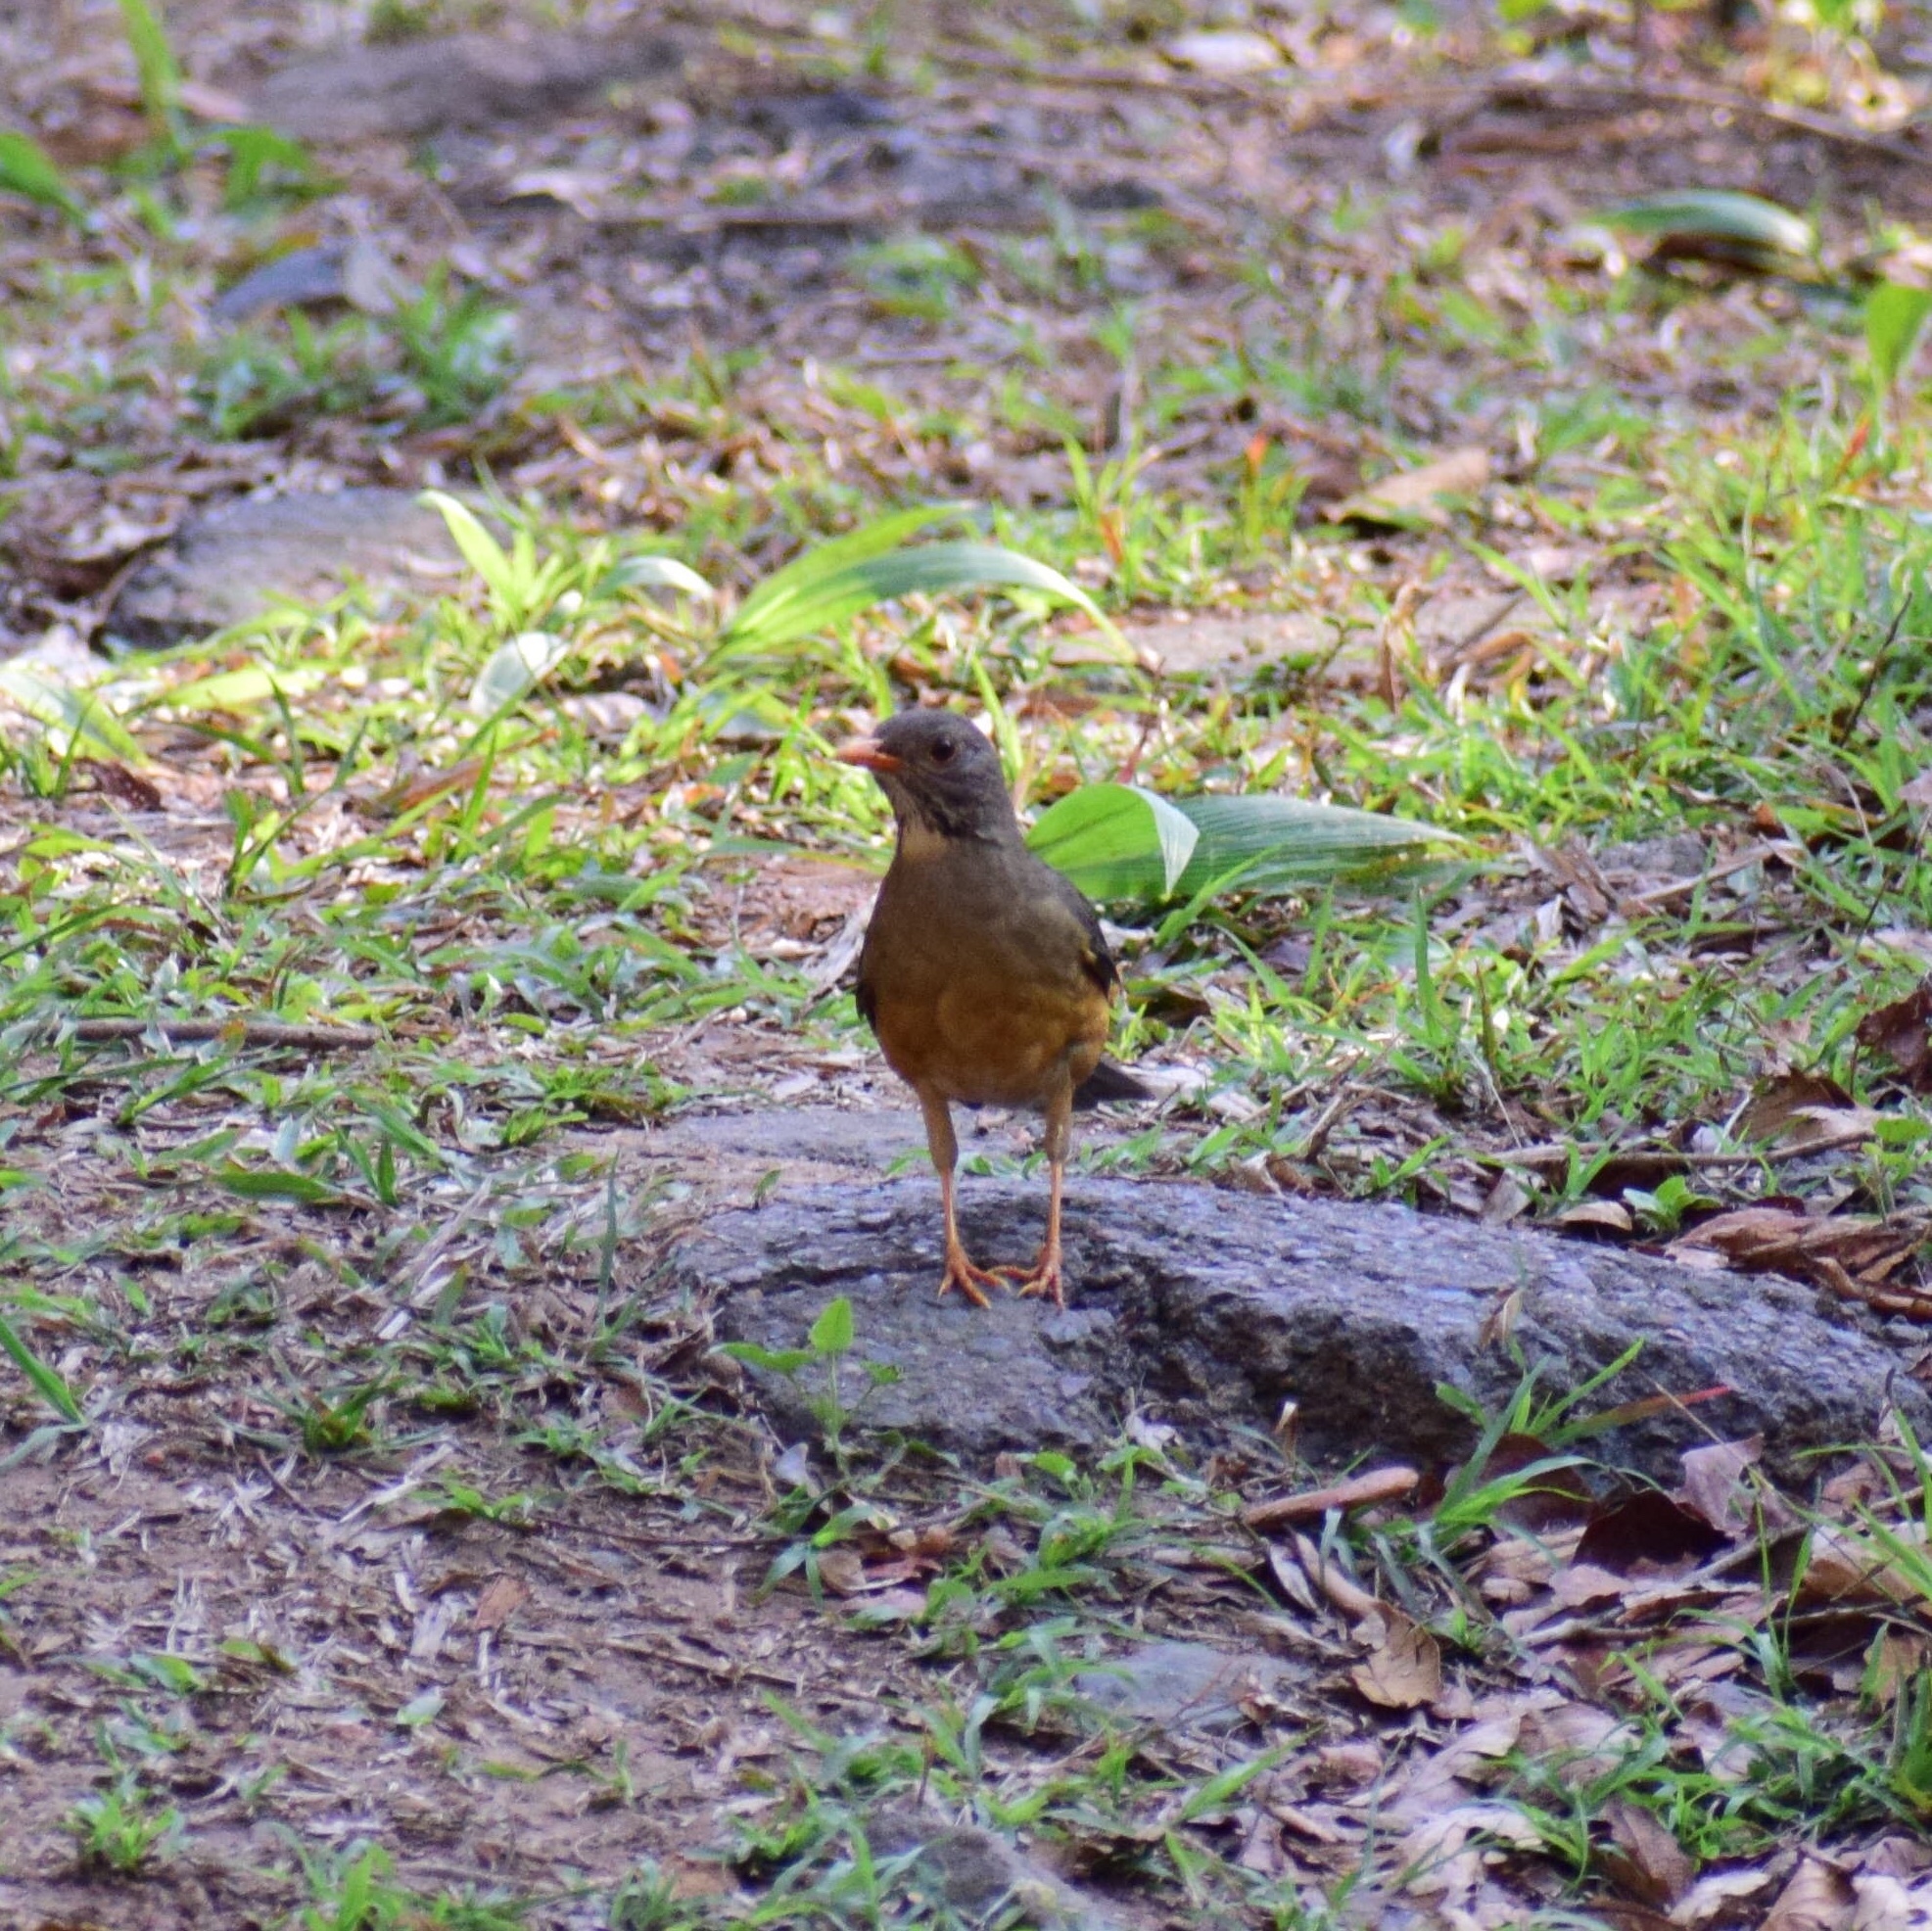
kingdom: Animalia
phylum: Chordata
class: Aves
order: Passeriformes
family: Turdidae
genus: Turdus
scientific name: Turdus libonyana
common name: Kurrichane thrush
